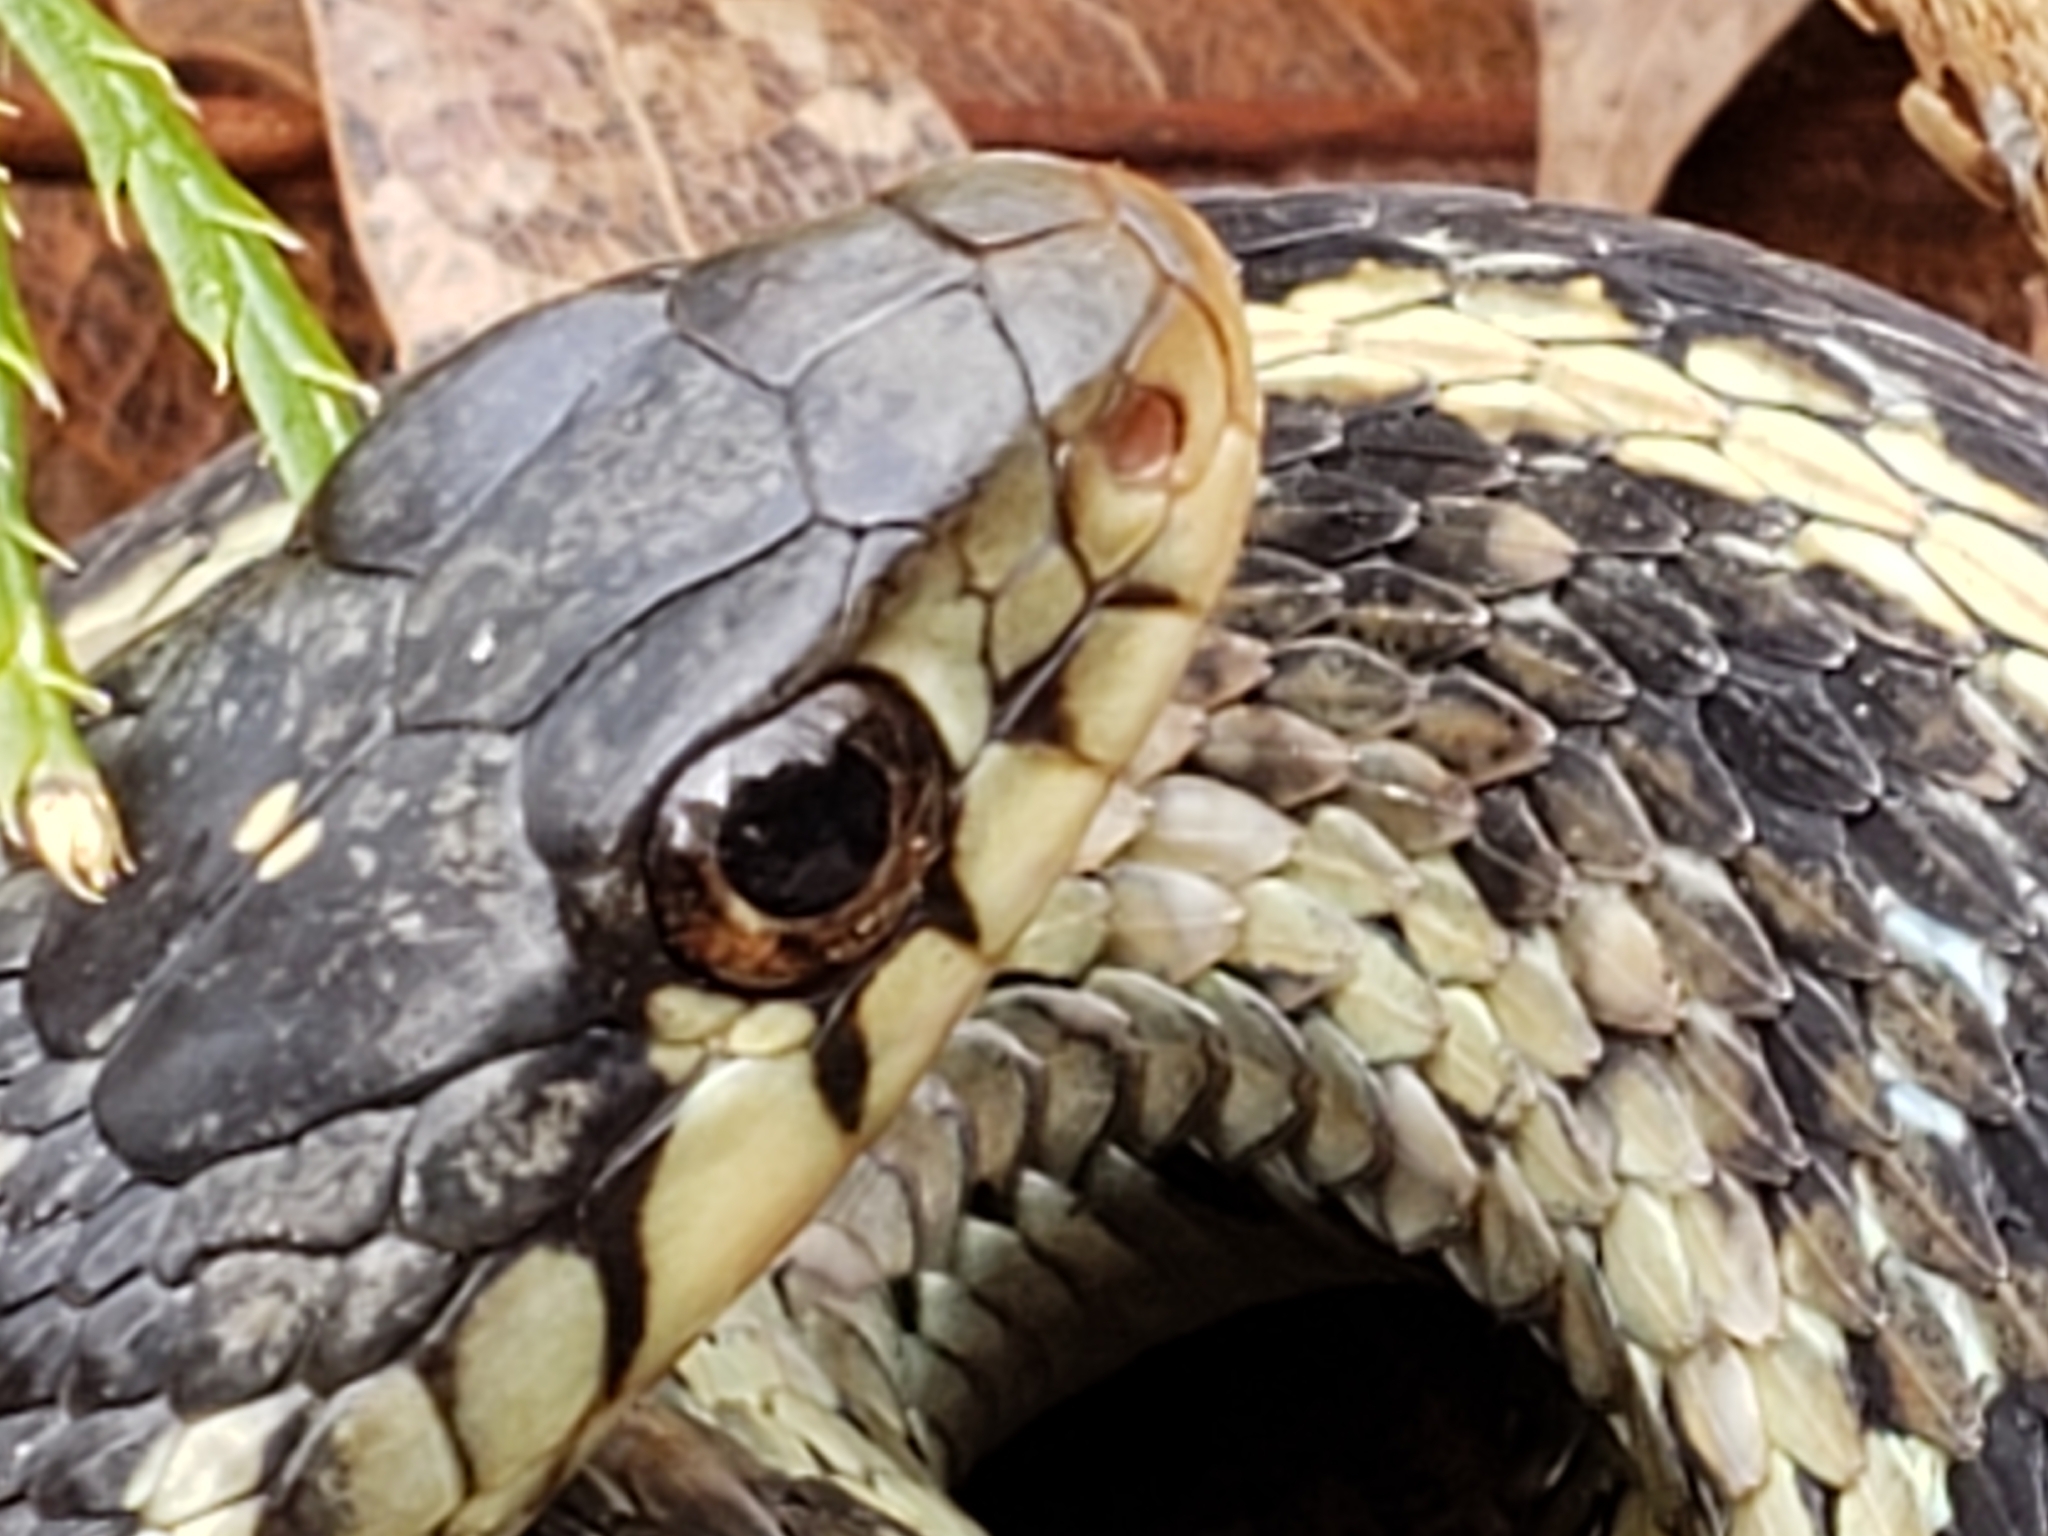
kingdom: Animalia
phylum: Chordata
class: Squamata
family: Colubridae
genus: Thamnophis
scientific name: Thamnophis sirtalis
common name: Common garter snake
